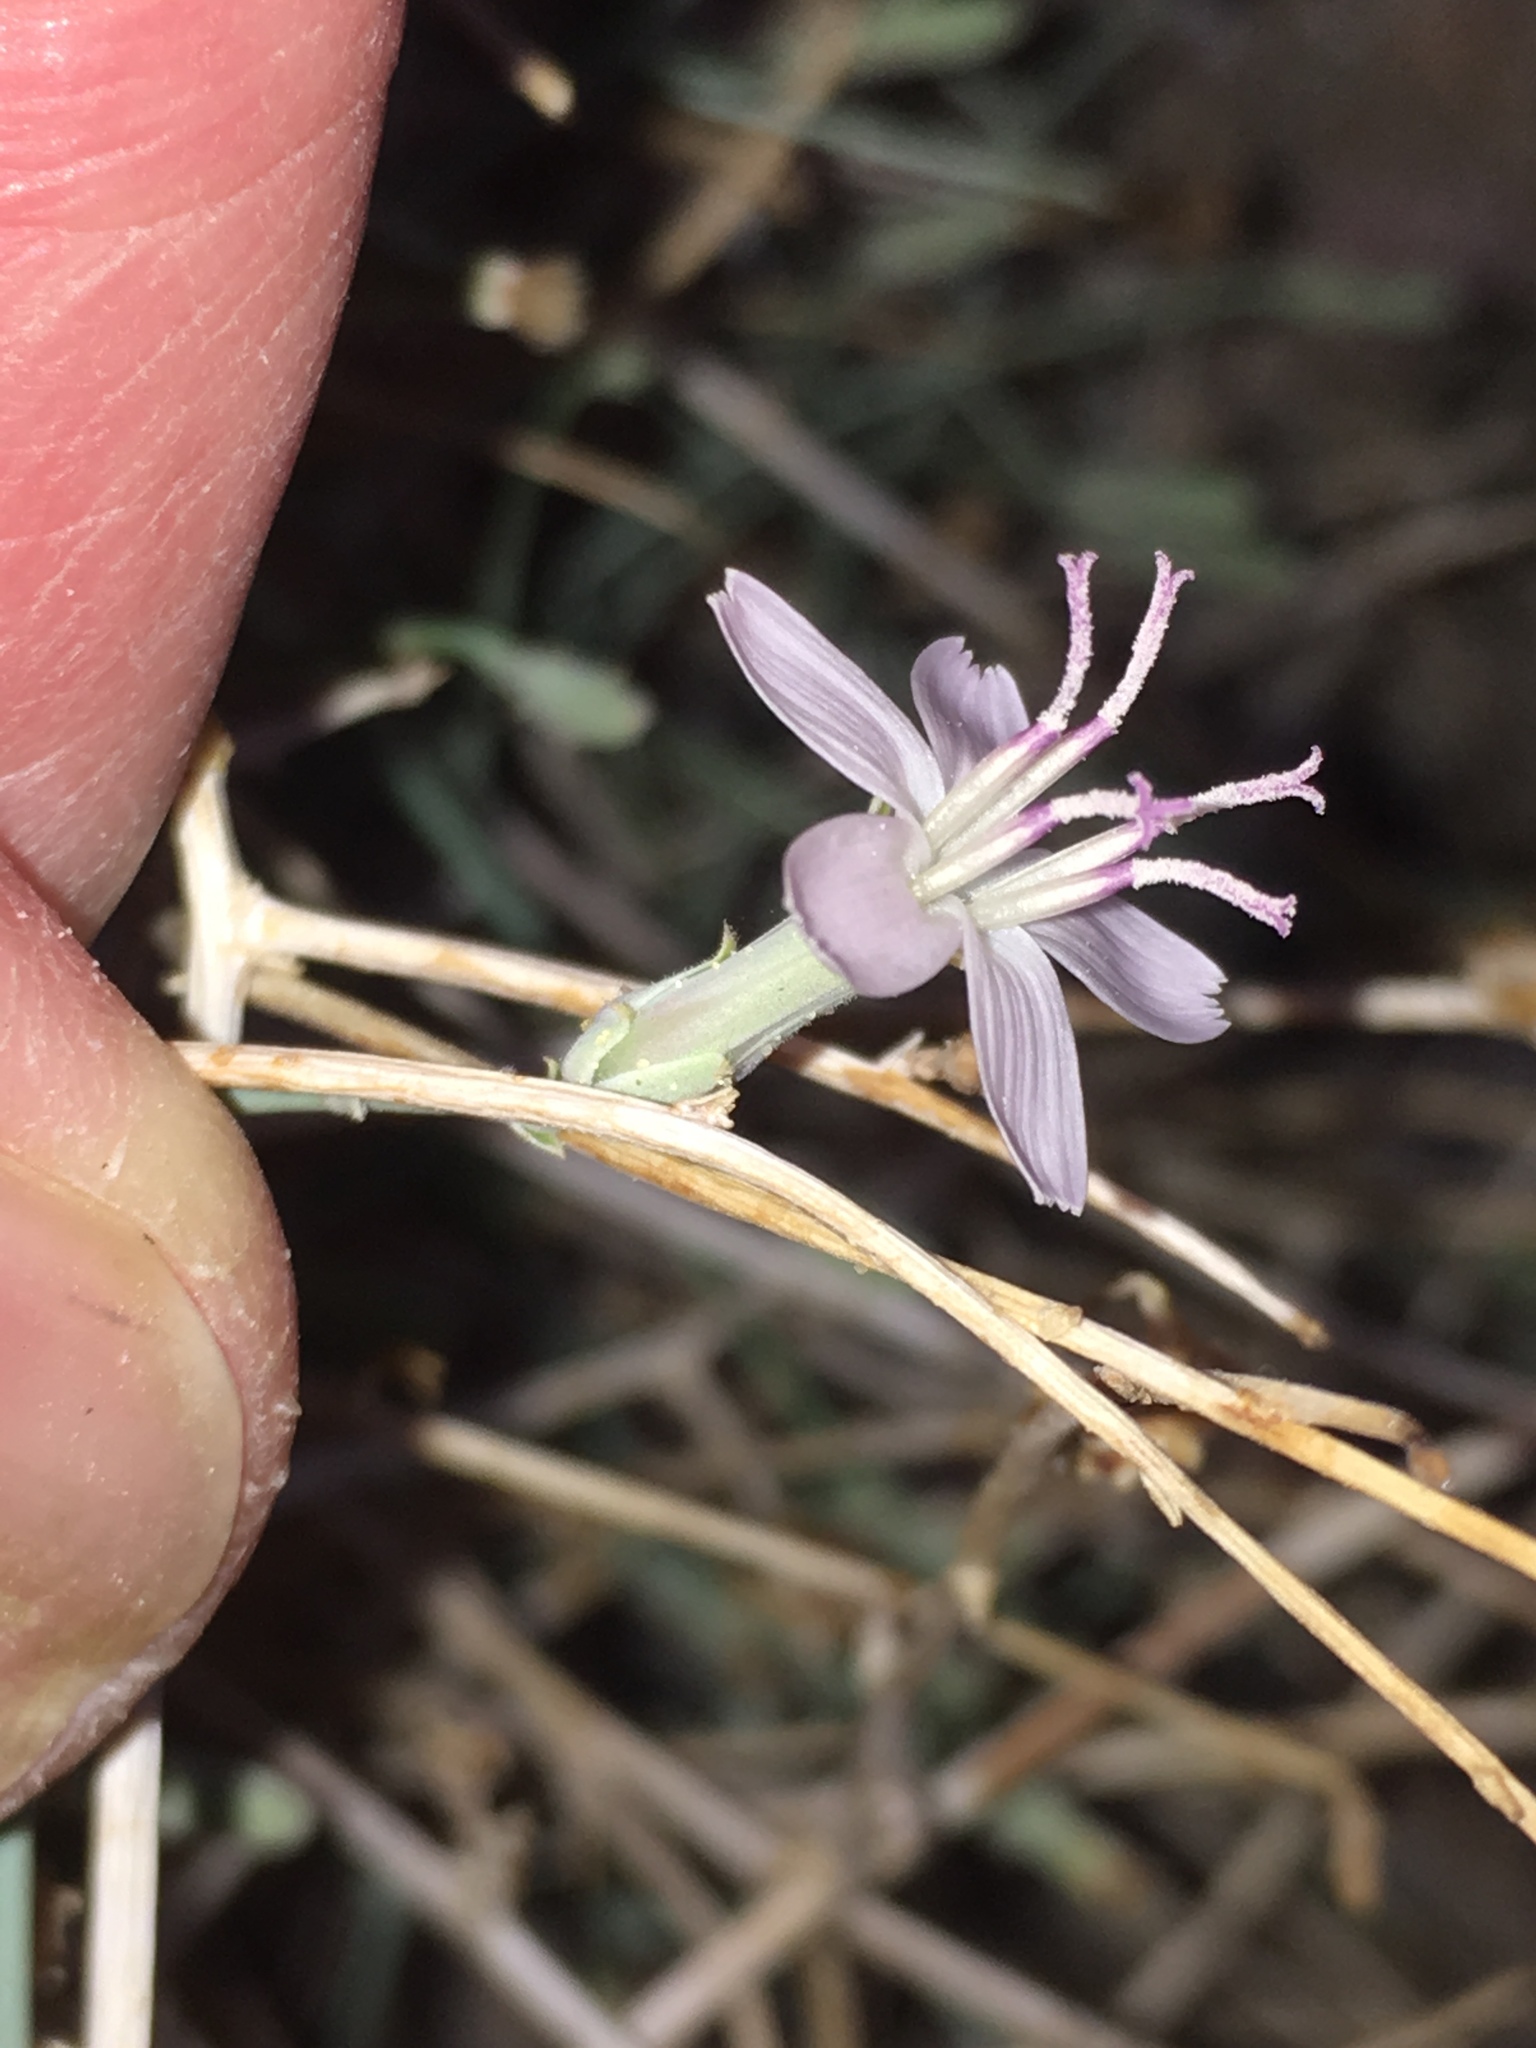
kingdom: Plantae
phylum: Tracheophyta
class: Magnoliopsida
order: Asterales
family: Asteraceae
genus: Stephanomeria
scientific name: Stephanomeria pauciflora
